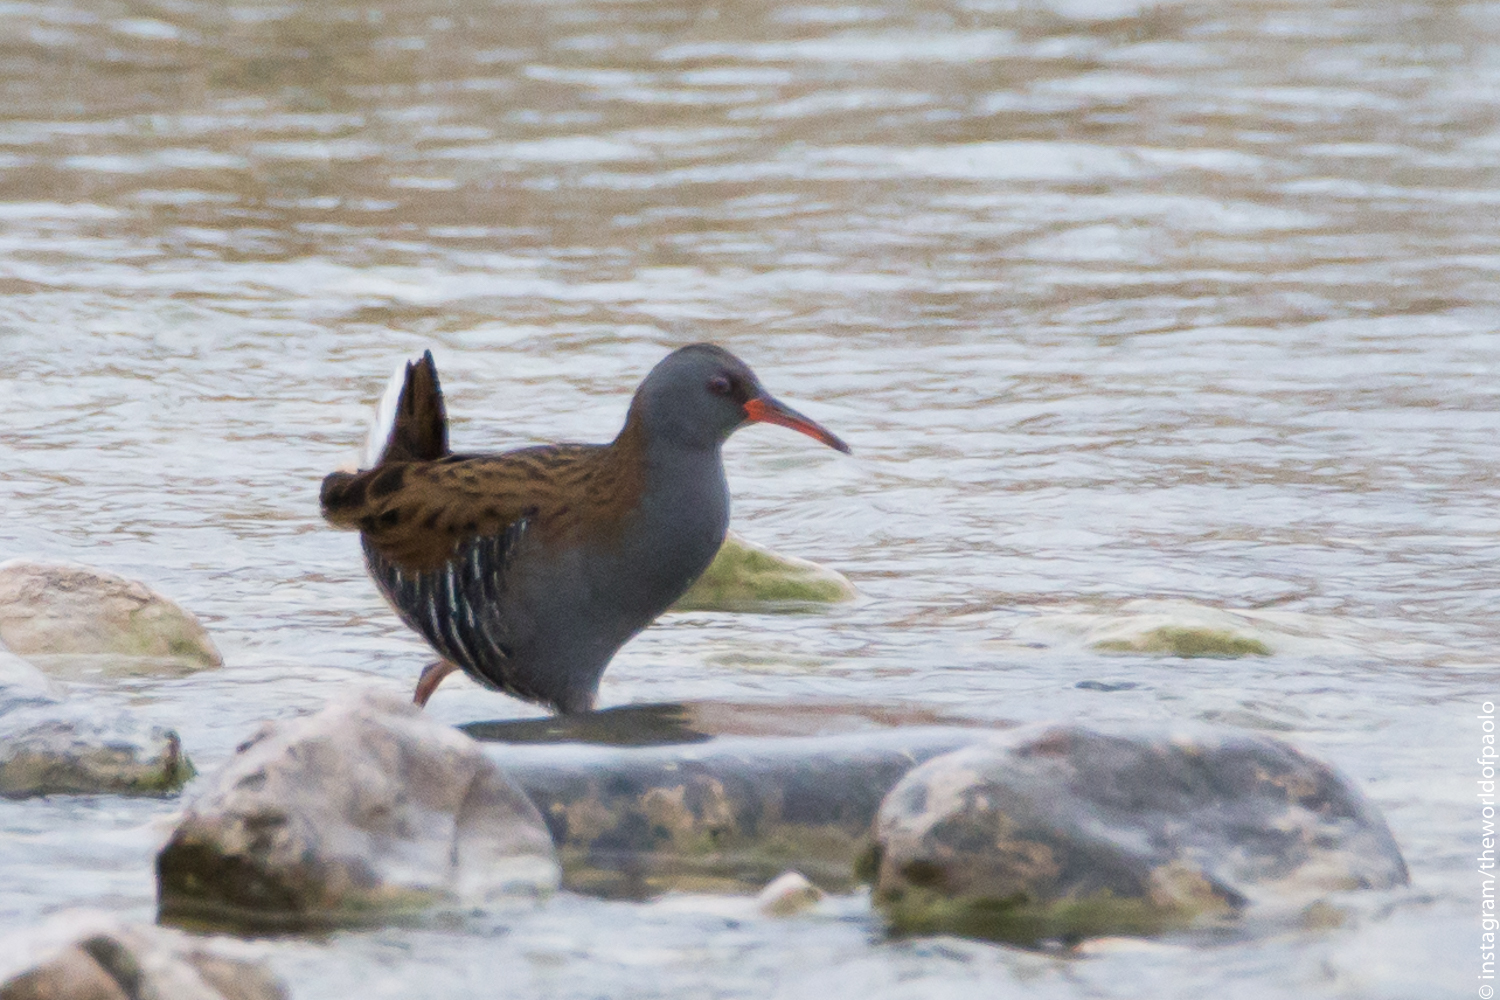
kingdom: Animalia
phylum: Chordata
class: Aves
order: Gruiformes
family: Rallidae
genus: Rallus
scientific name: Rallus aquaticus
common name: Water rail
